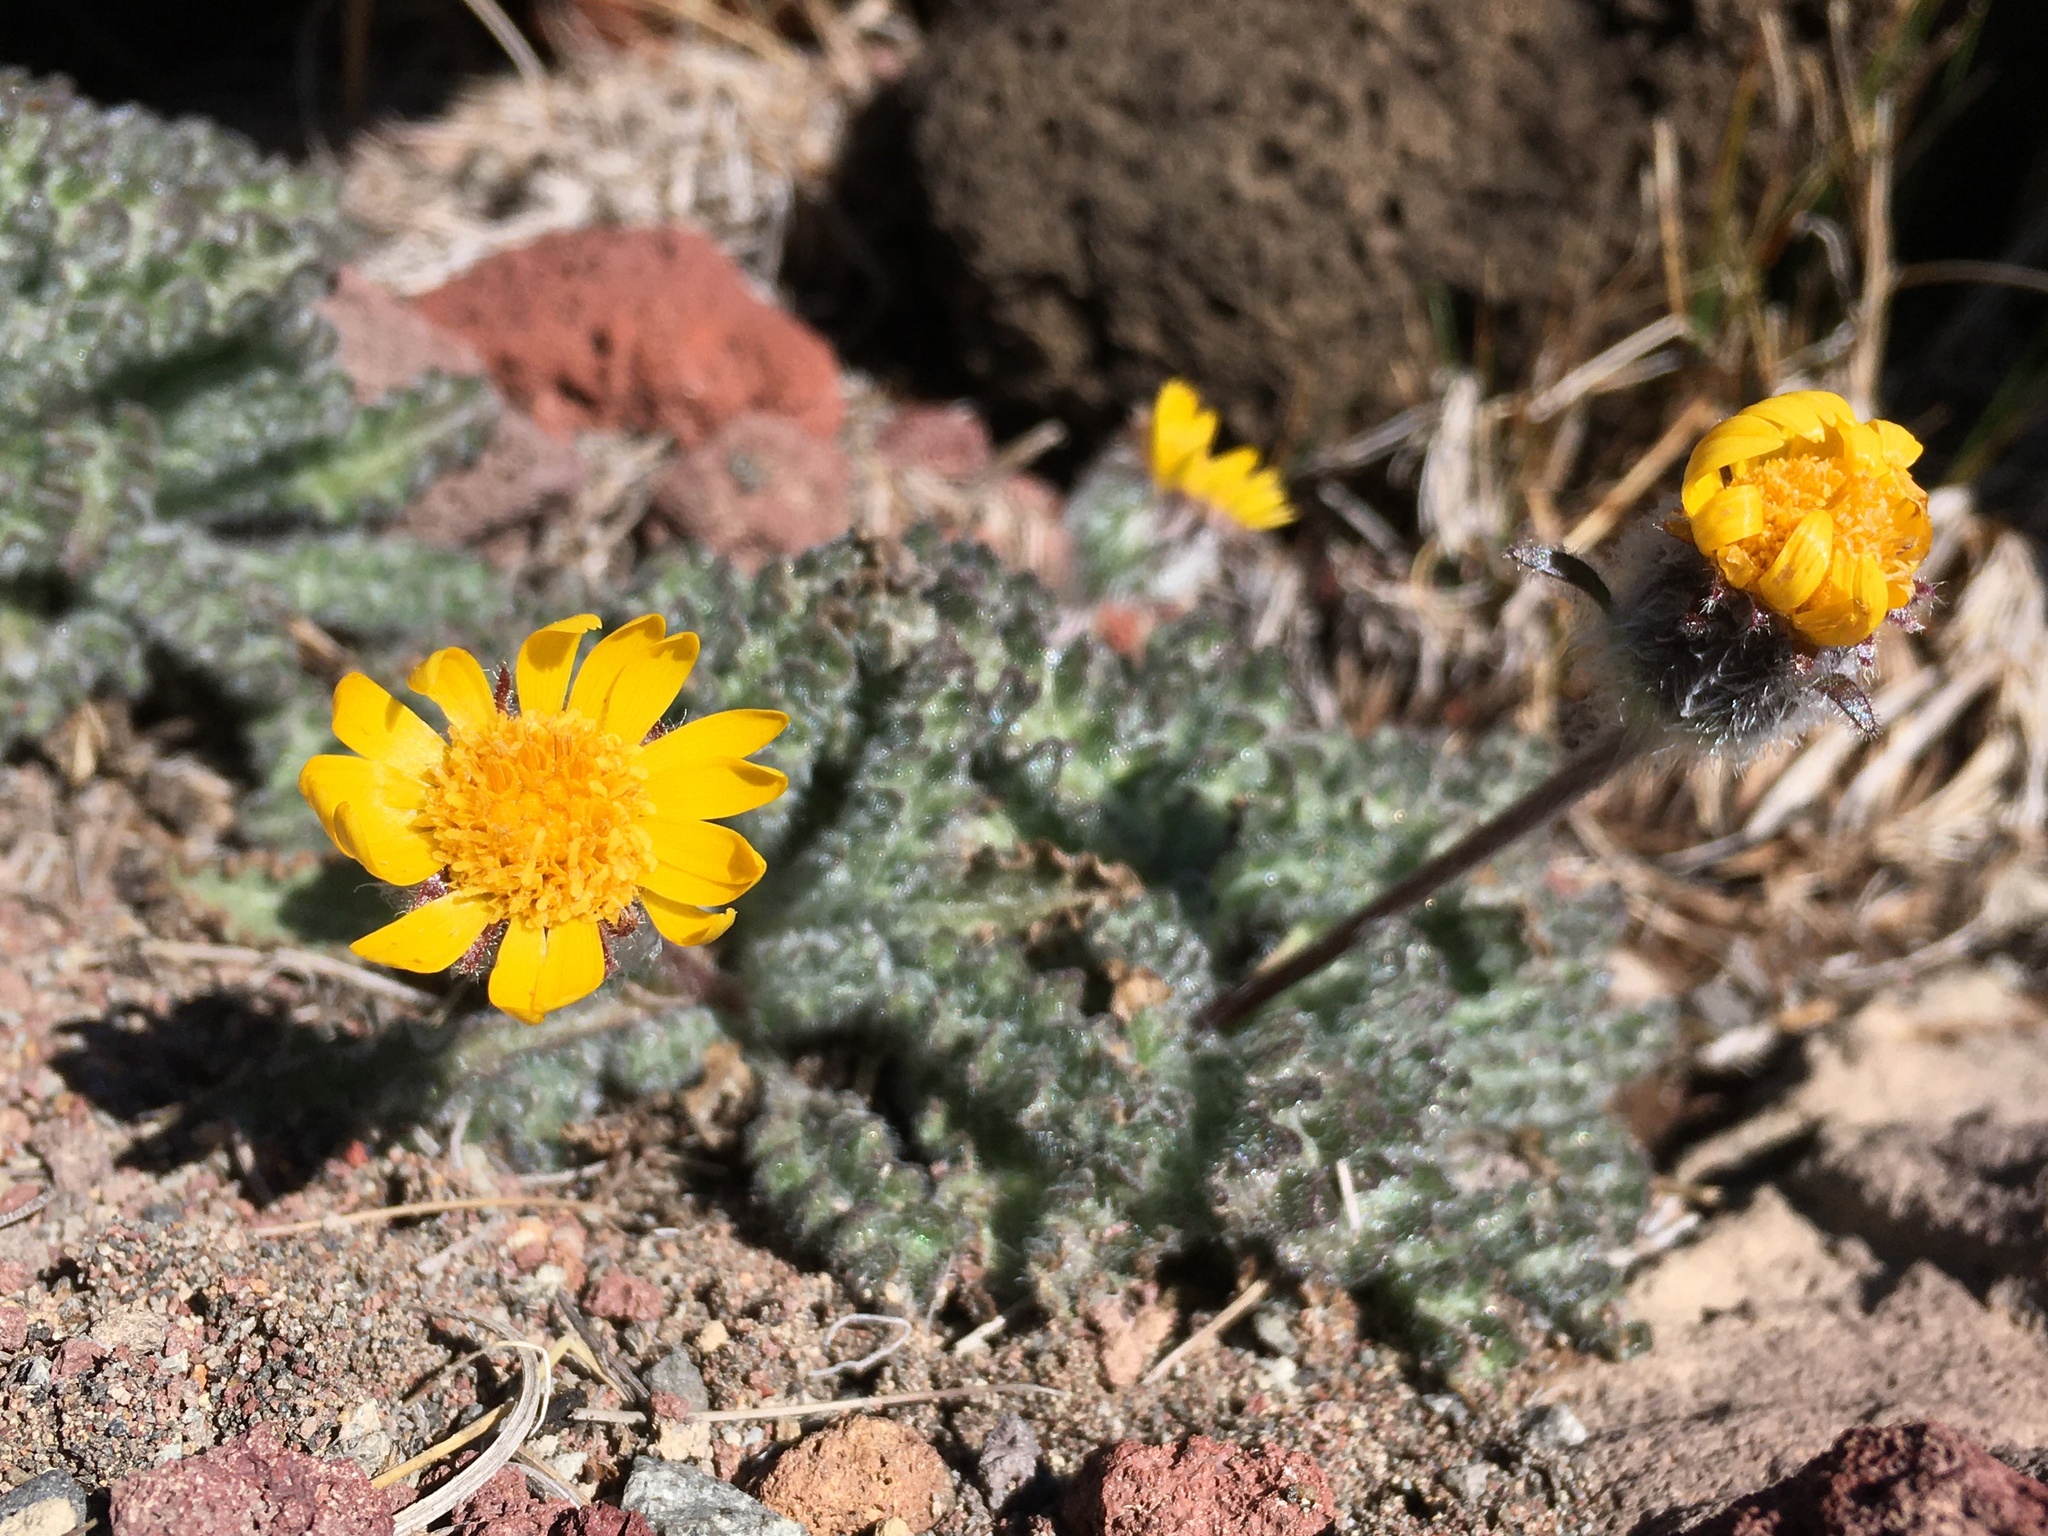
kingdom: Plantae
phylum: Tracheophyta
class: Magnoliopsida
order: Asterales
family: Asteraceae
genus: Hulsea
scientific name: Hulsea nana
